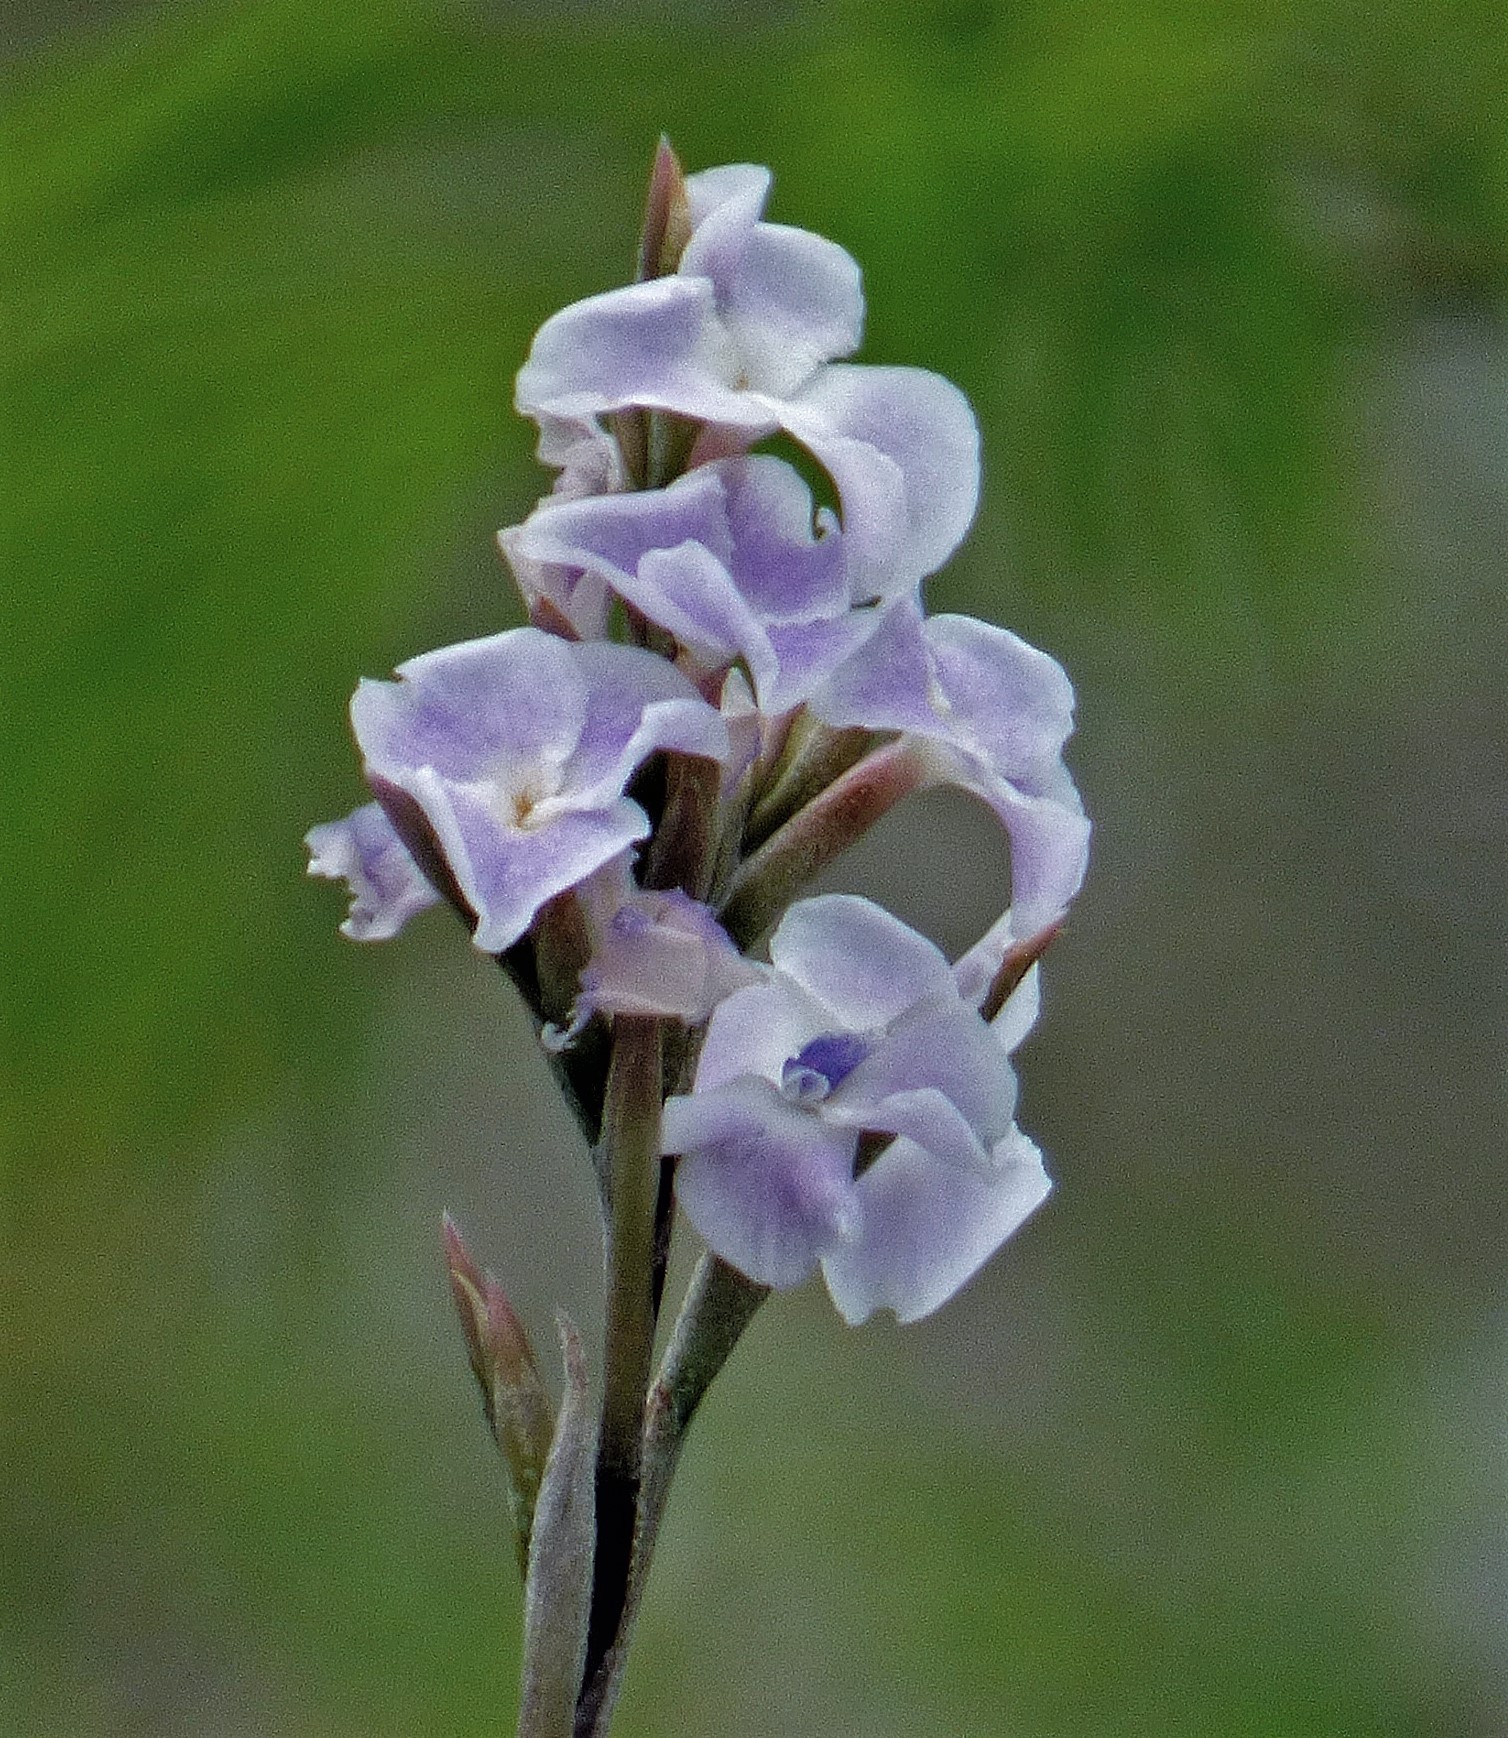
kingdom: Plantae
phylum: Tracheophyta
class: Liliopsida
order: Poales
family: Bromeliaceae
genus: Tillandsia
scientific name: Tillandsia streptocarpa
